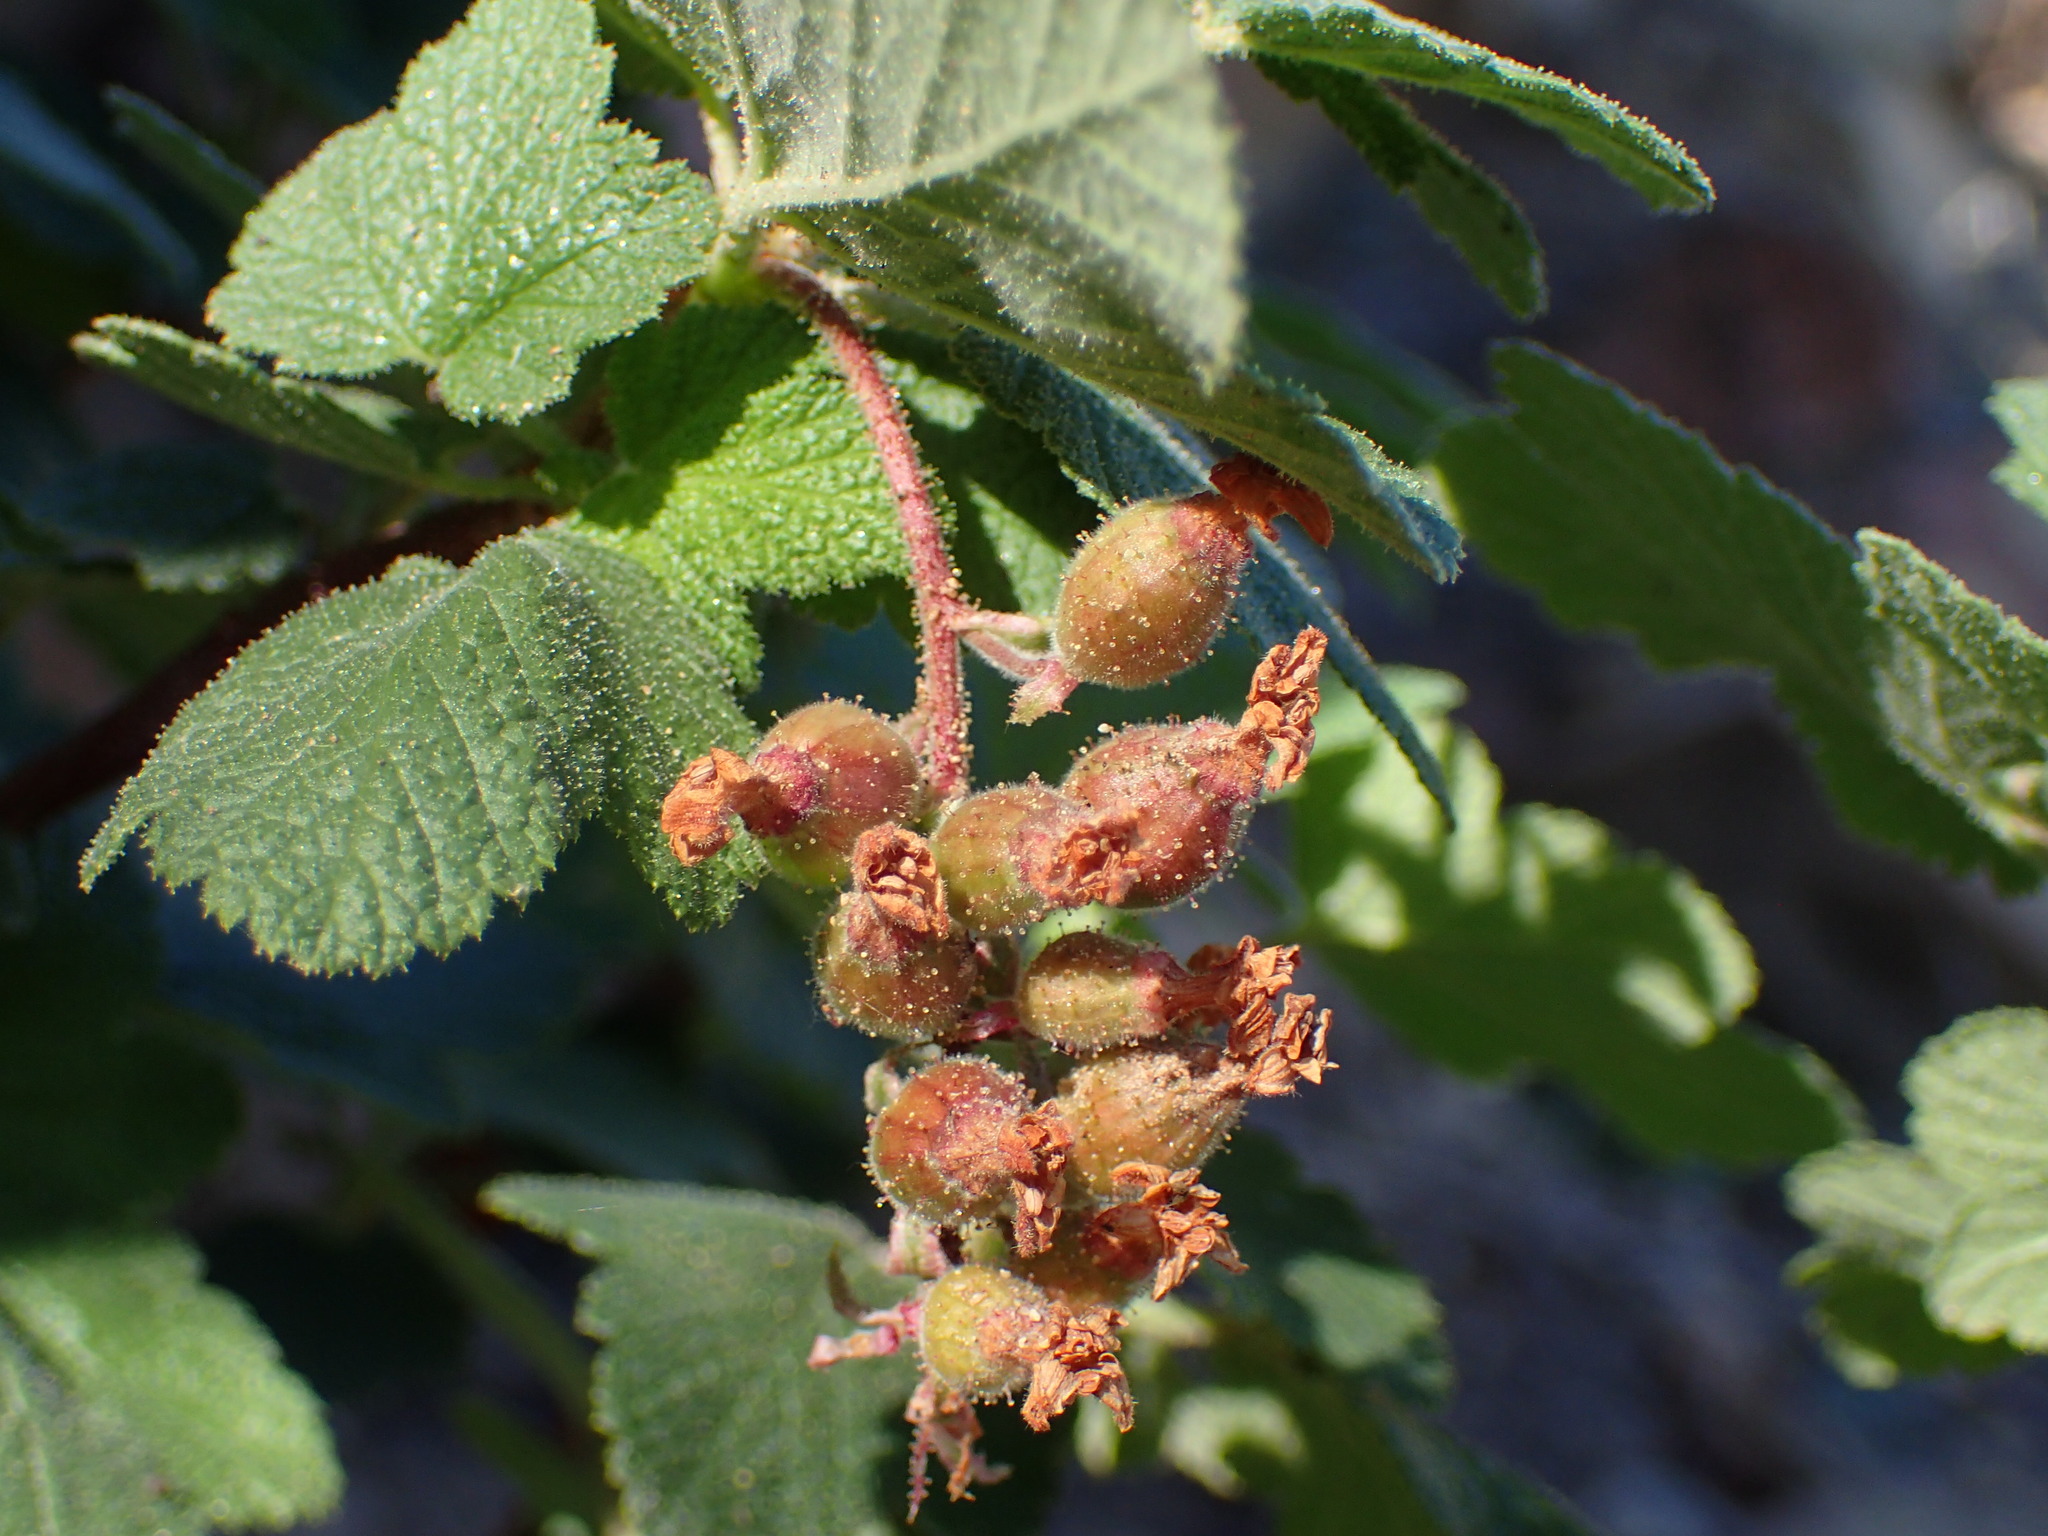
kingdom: Plantae
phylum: Tracheophyta
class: Magnoliopsida
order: Saxifragales
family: Grossulariaceae
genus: Ribes
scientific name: Ribes malvaceum
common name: Chaparral currant
